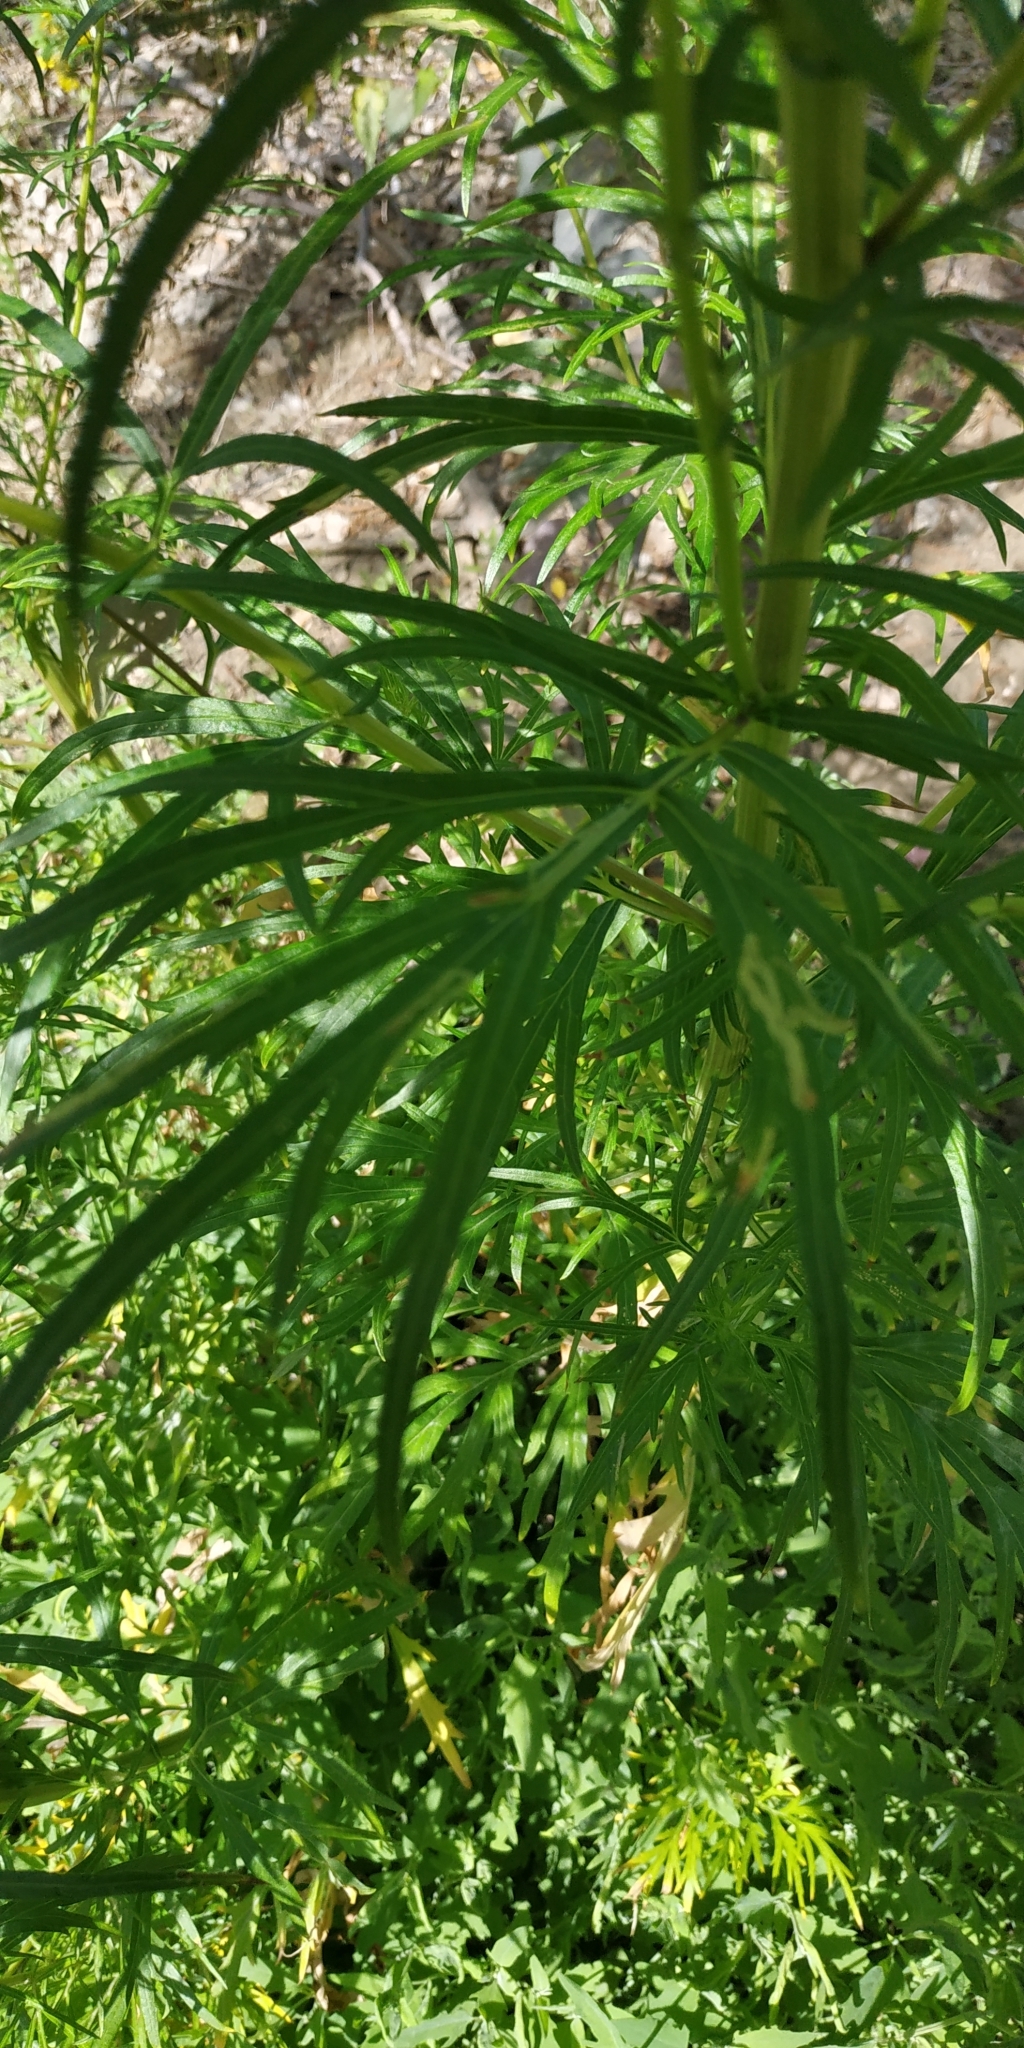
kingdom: Plantae
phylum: Tracheophyta
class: Magnoliopsida
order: Asterales
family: Asteraceae
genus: Artemisia
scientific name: Artemisia vulgaris
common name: Mugwort
